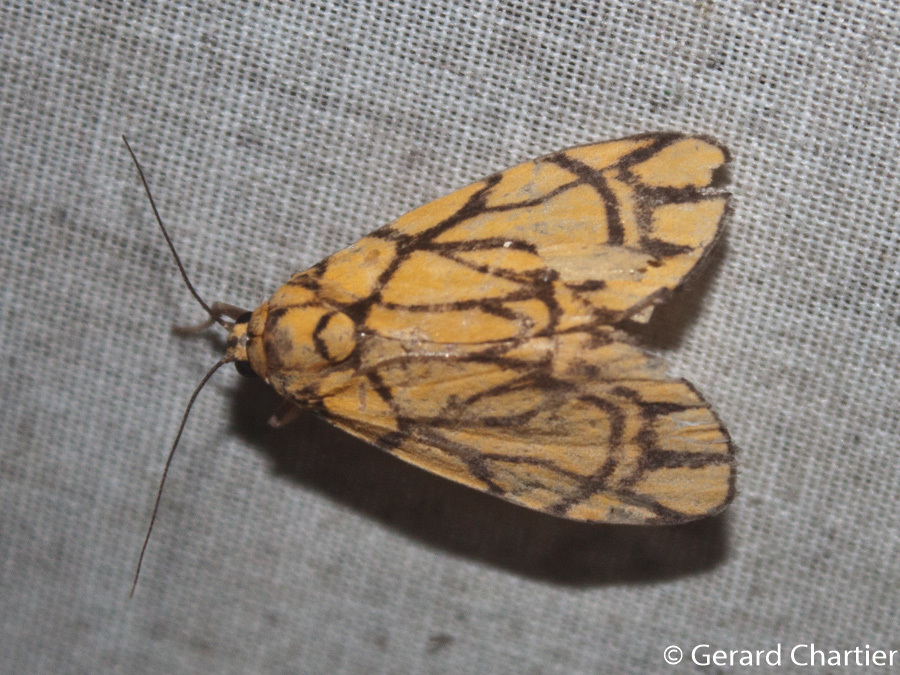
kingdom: Animalia
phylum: Arthropoda
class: Insecta
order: Lepidoptera
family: Erebidae
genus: Cyme
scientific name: Cyme euprepioides
